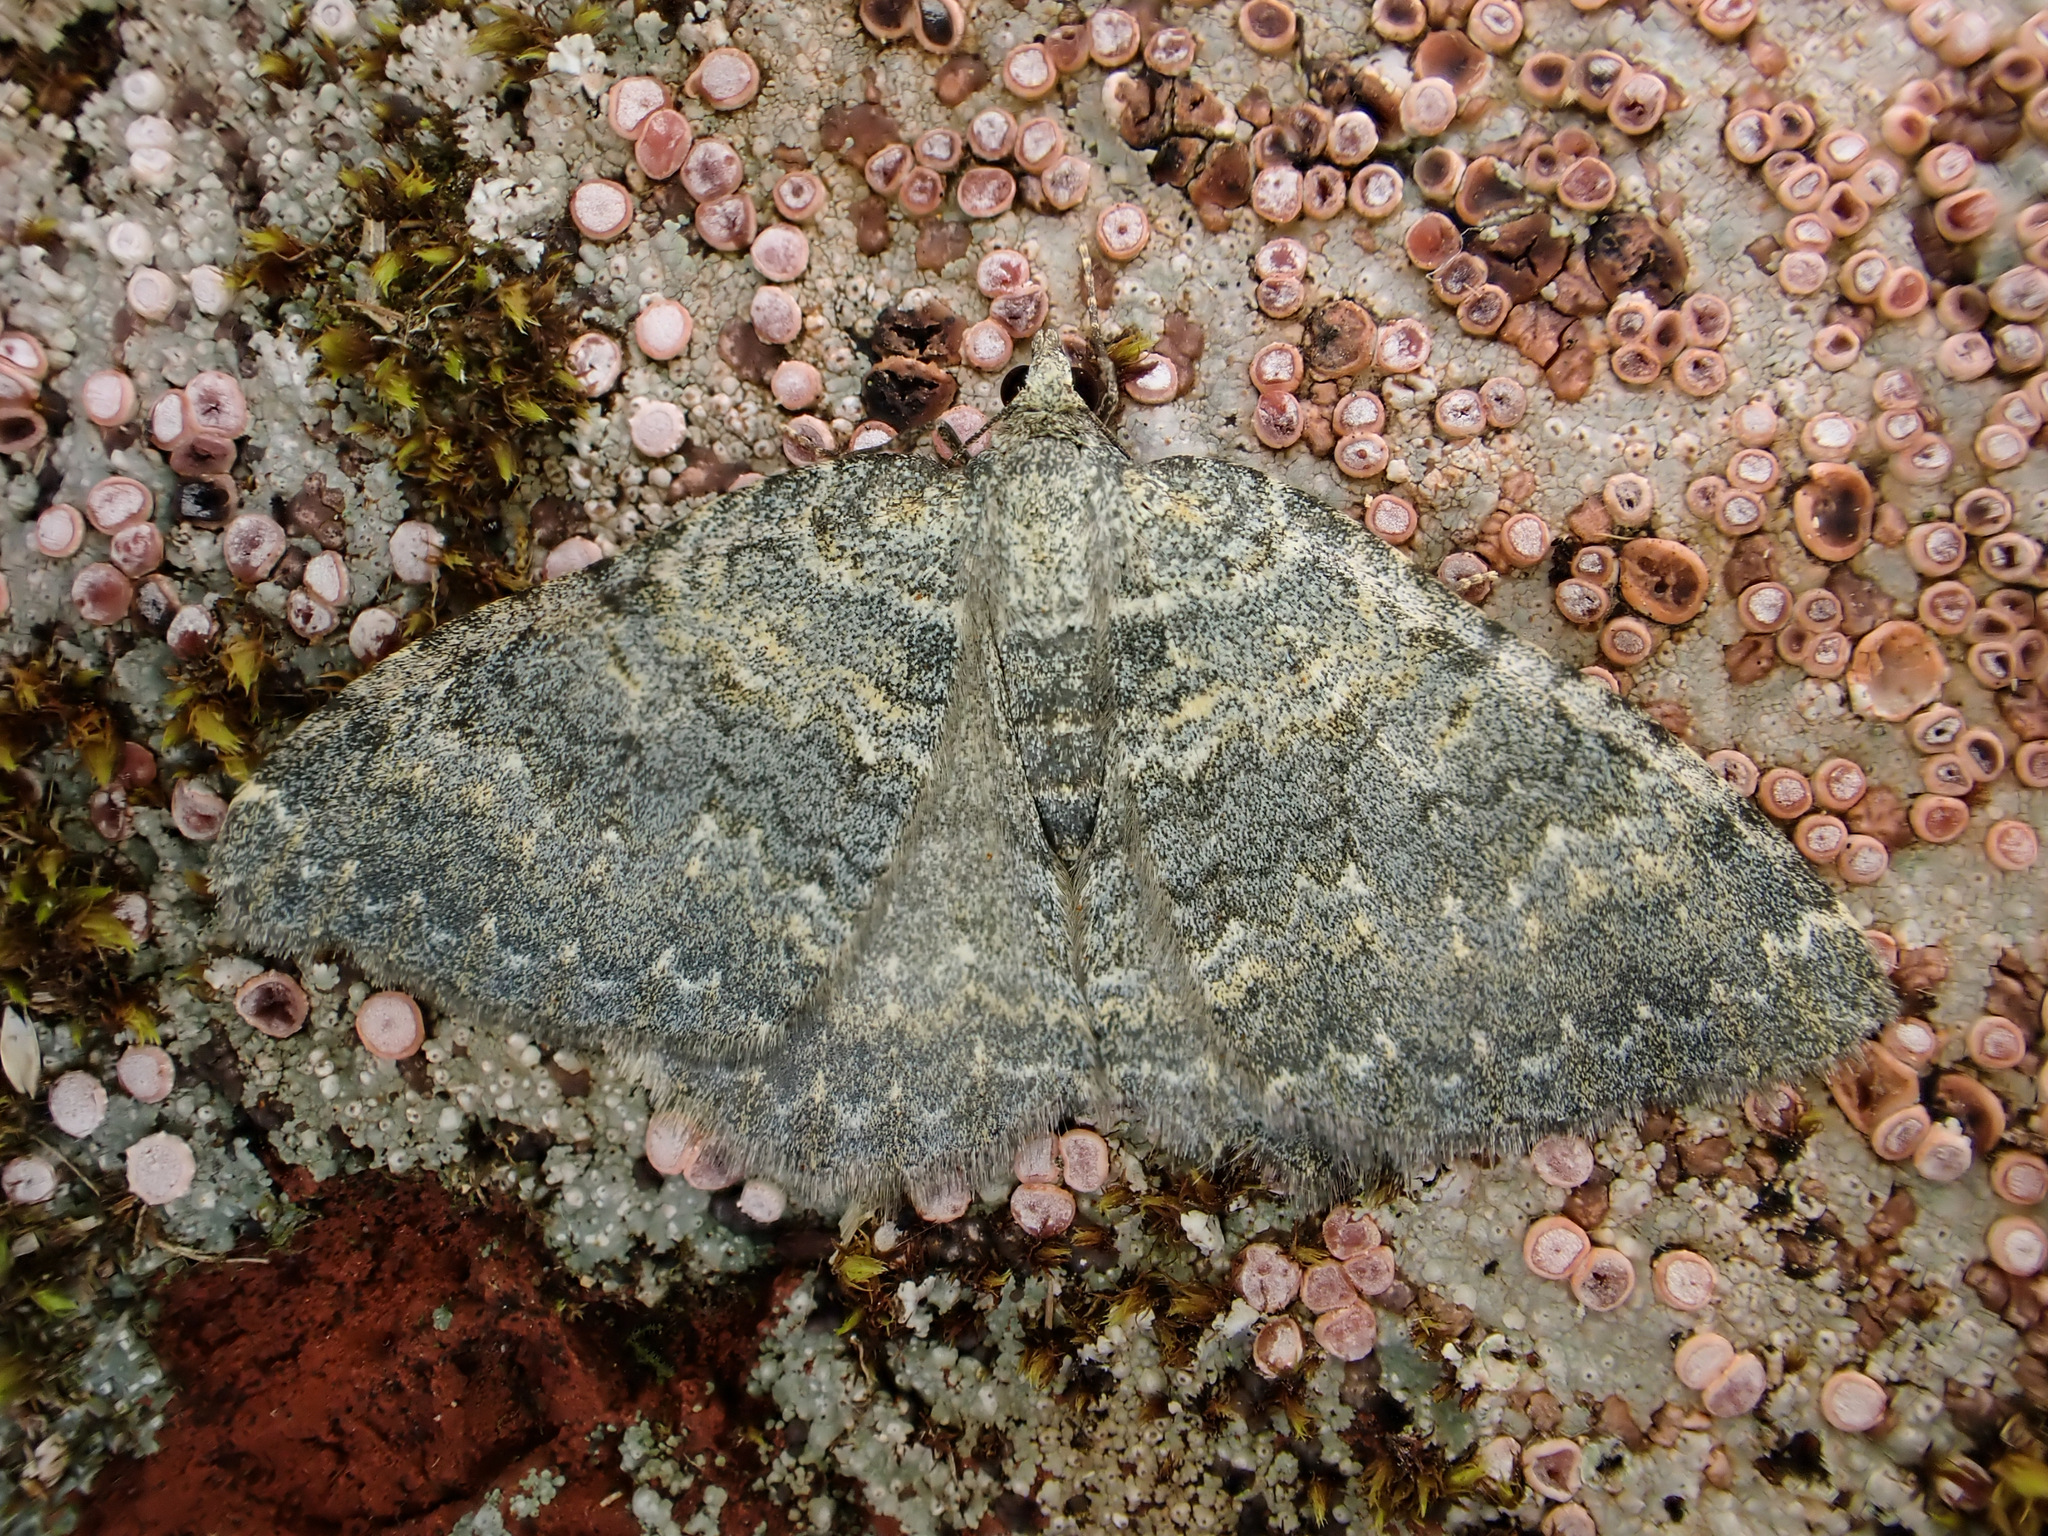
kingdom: Animalia
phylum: Arthropoda
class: Insecta
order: Lepidoptera
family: Geometridae
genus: Gingidiobora
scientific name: Gingidiobora subobscurata
